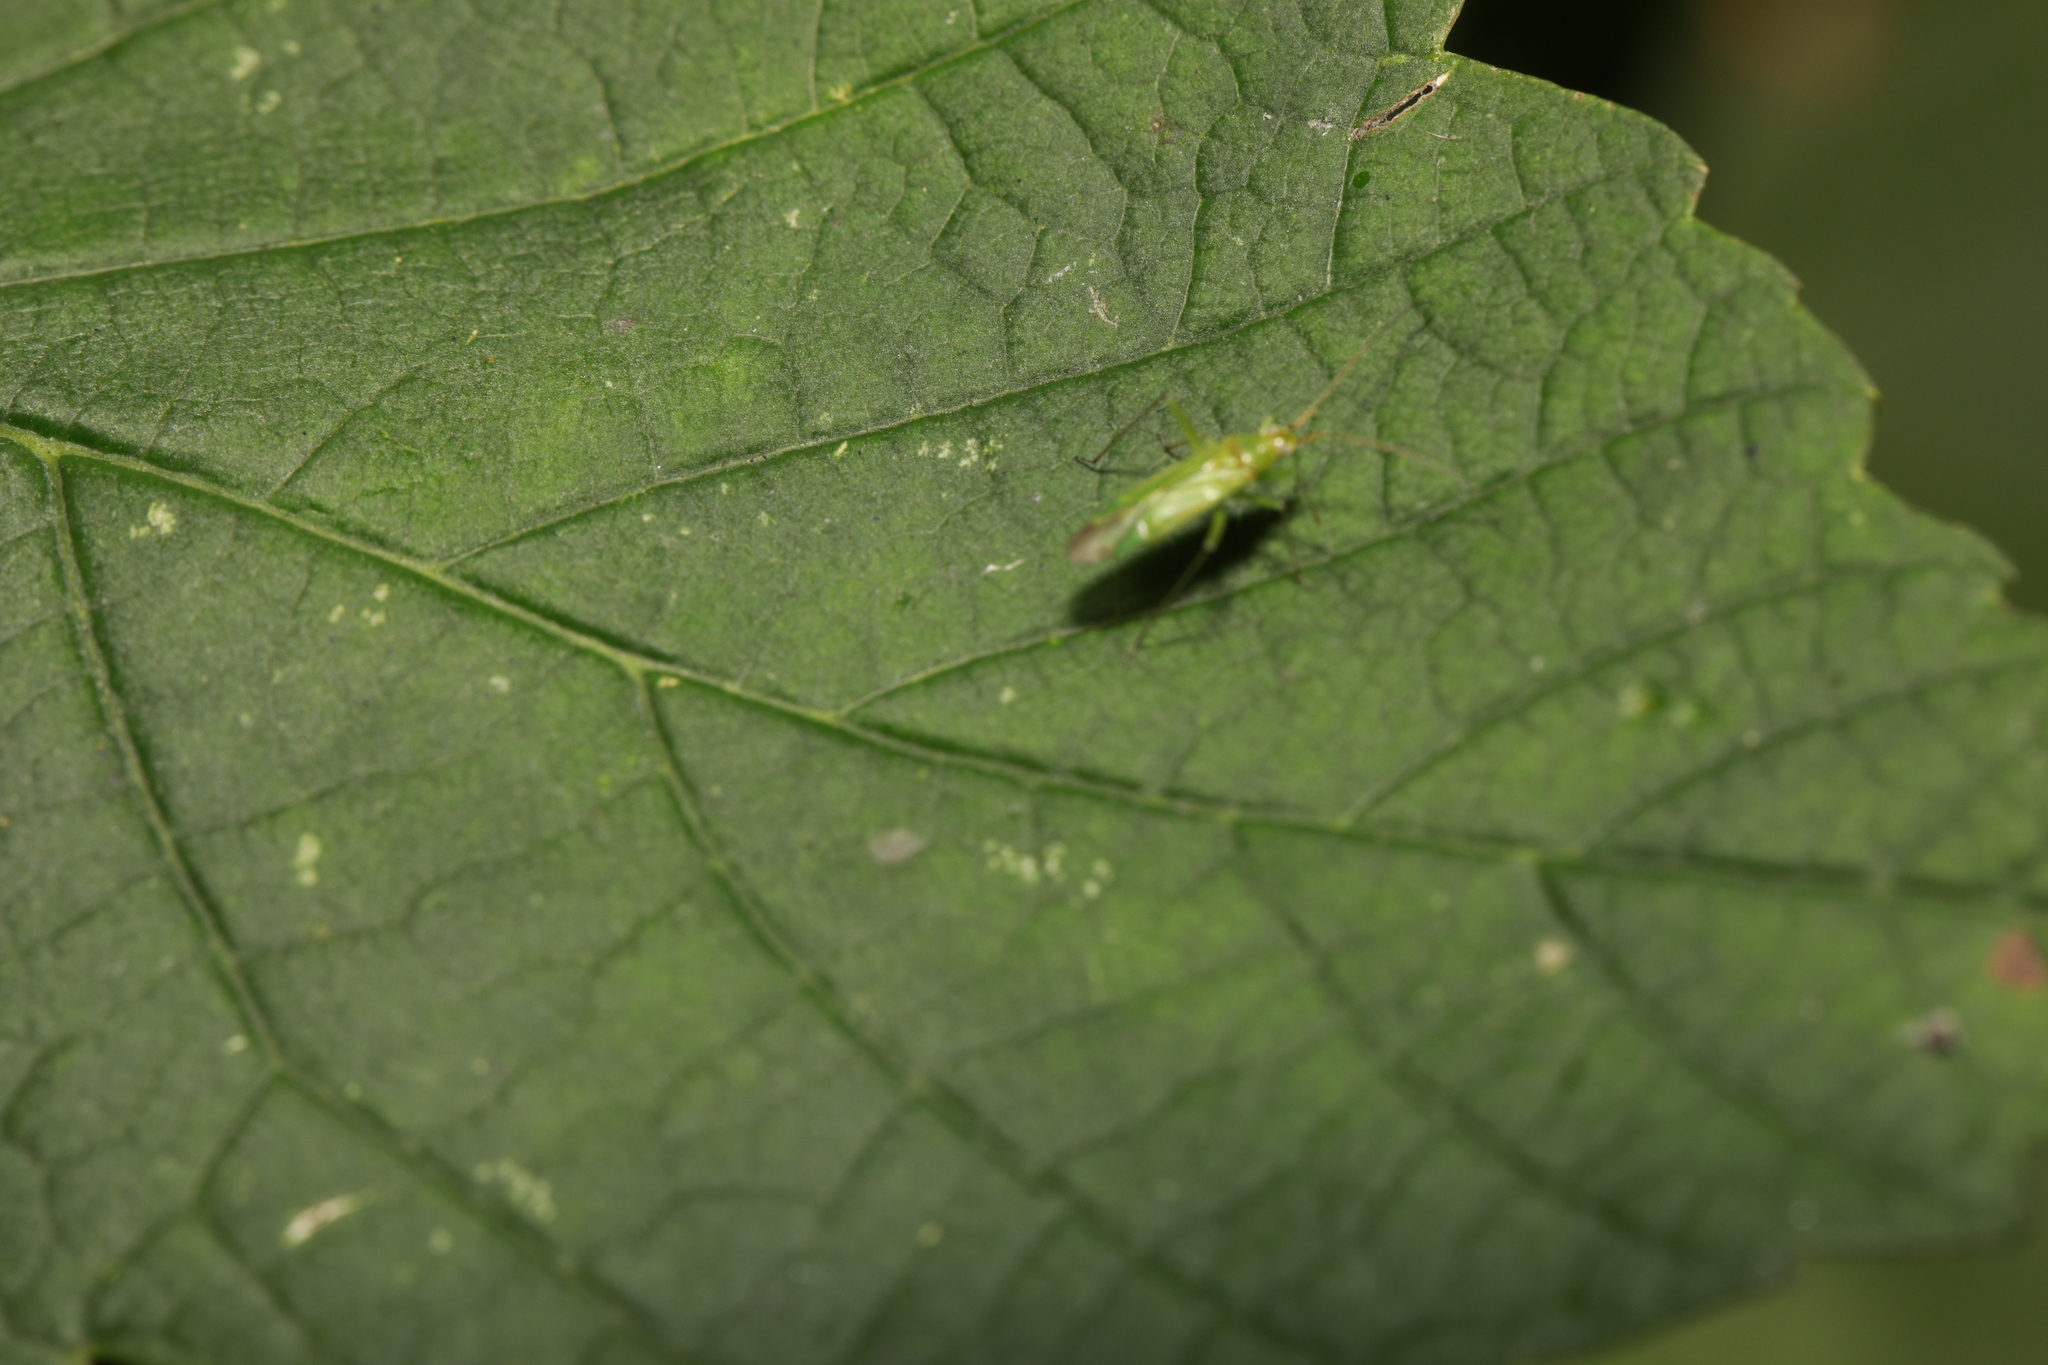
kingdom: Animalia
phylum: Arthropoda
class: Insecta
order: Hemiptera
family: Miridae
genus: Blepharidopterus
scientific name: Blepharidopterus angulatus
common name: Plant bug
